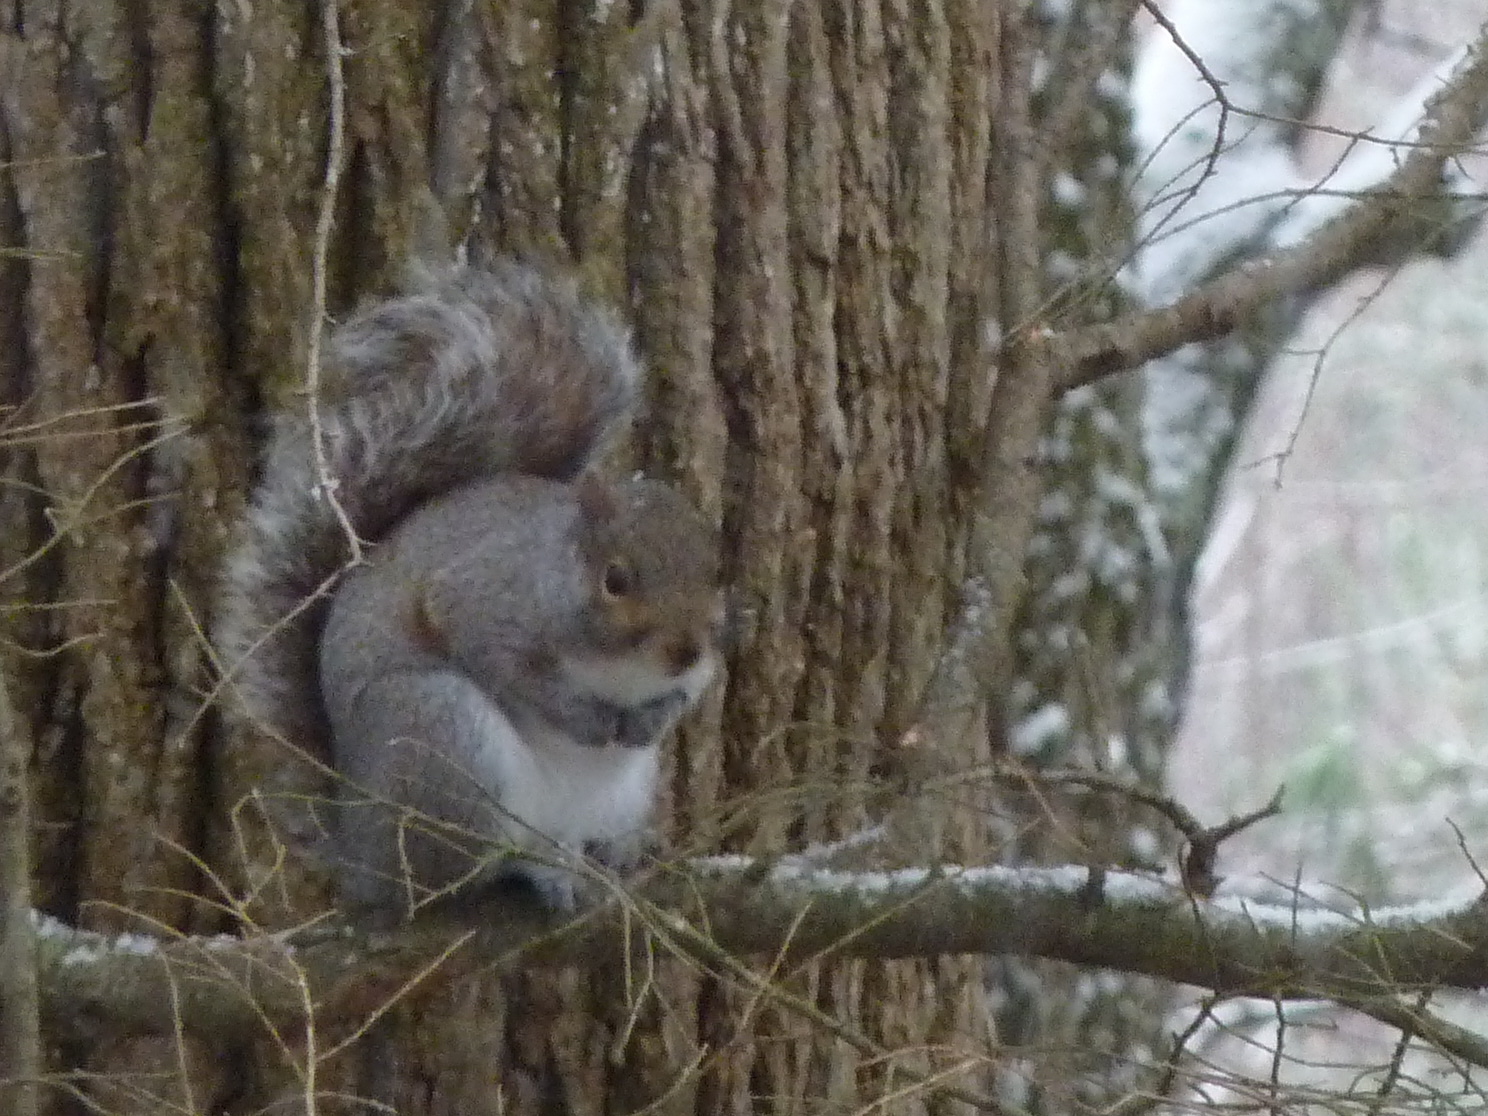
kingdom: Animalia
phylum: Chordata
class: Mammalia
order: Rodentia
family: Sciuridae
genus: Sciurus
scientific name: Sciurus carolinensis
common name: Eastern gray squirrel
